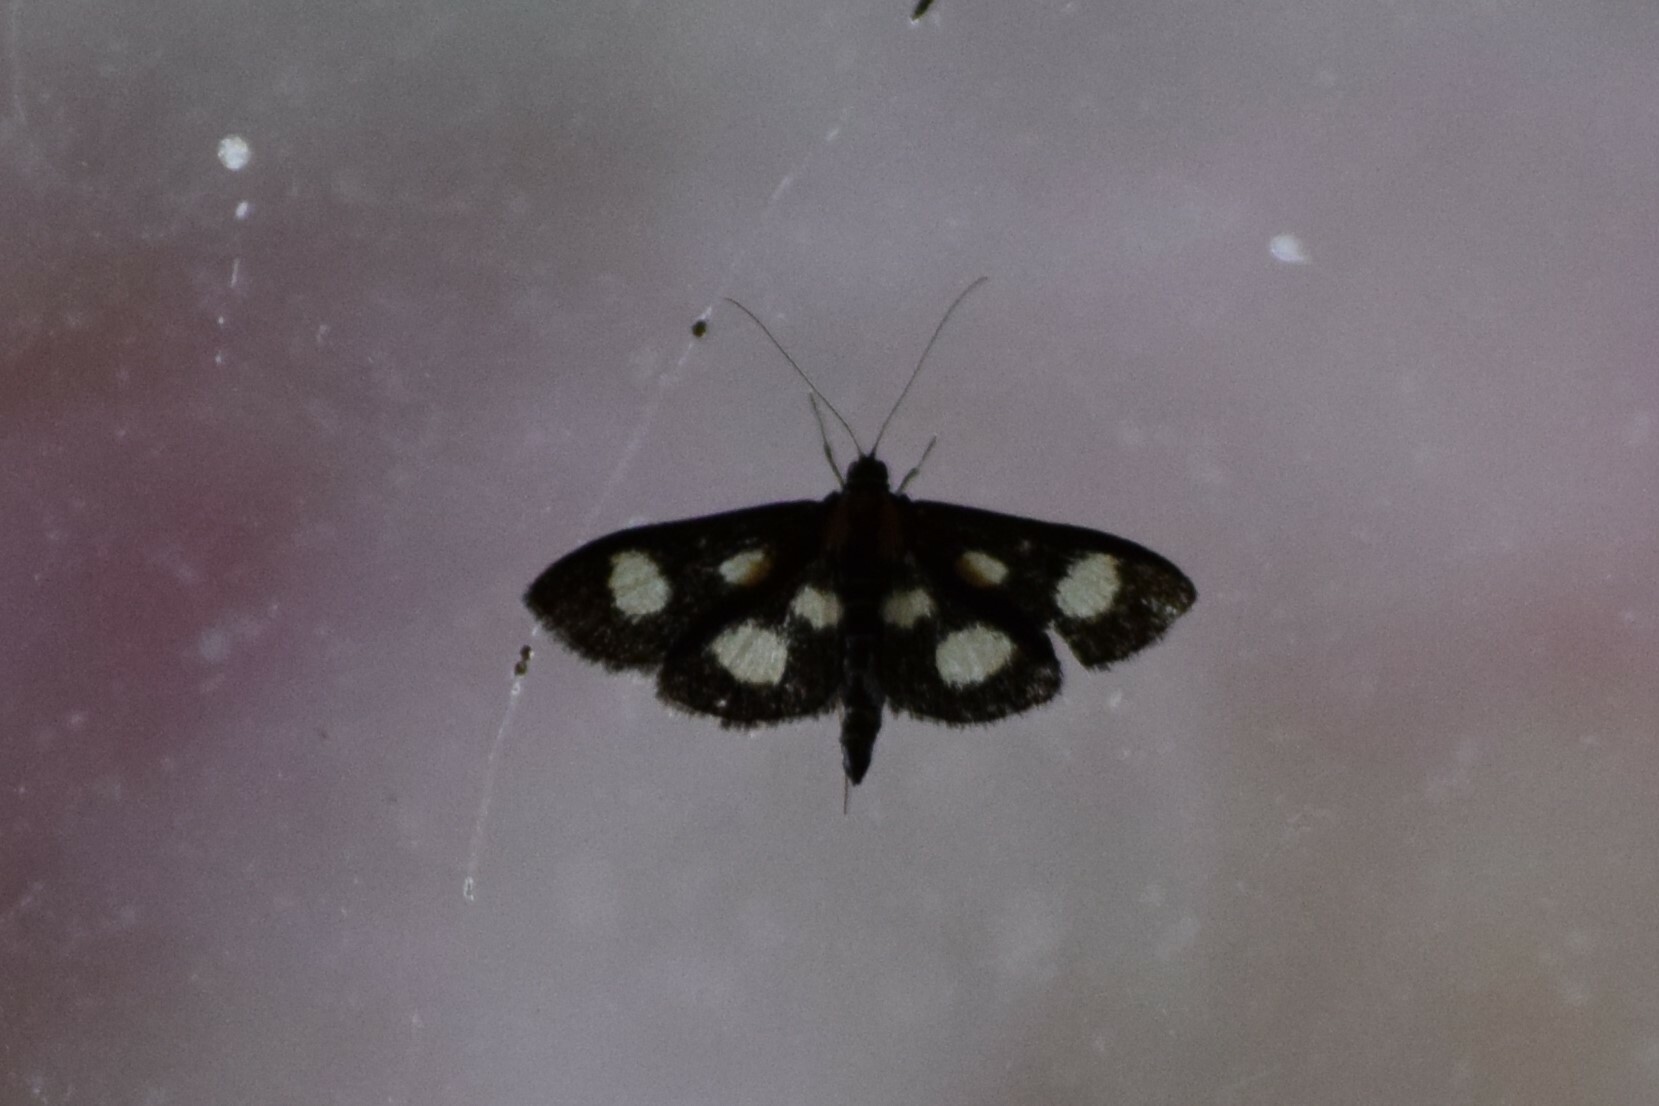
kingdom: Animalia
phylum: Arthropoda
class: Insecta
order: Lepidoptera
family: Crambidae
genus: Anania
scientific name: Anania funebris
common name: White-spotted sable moth
